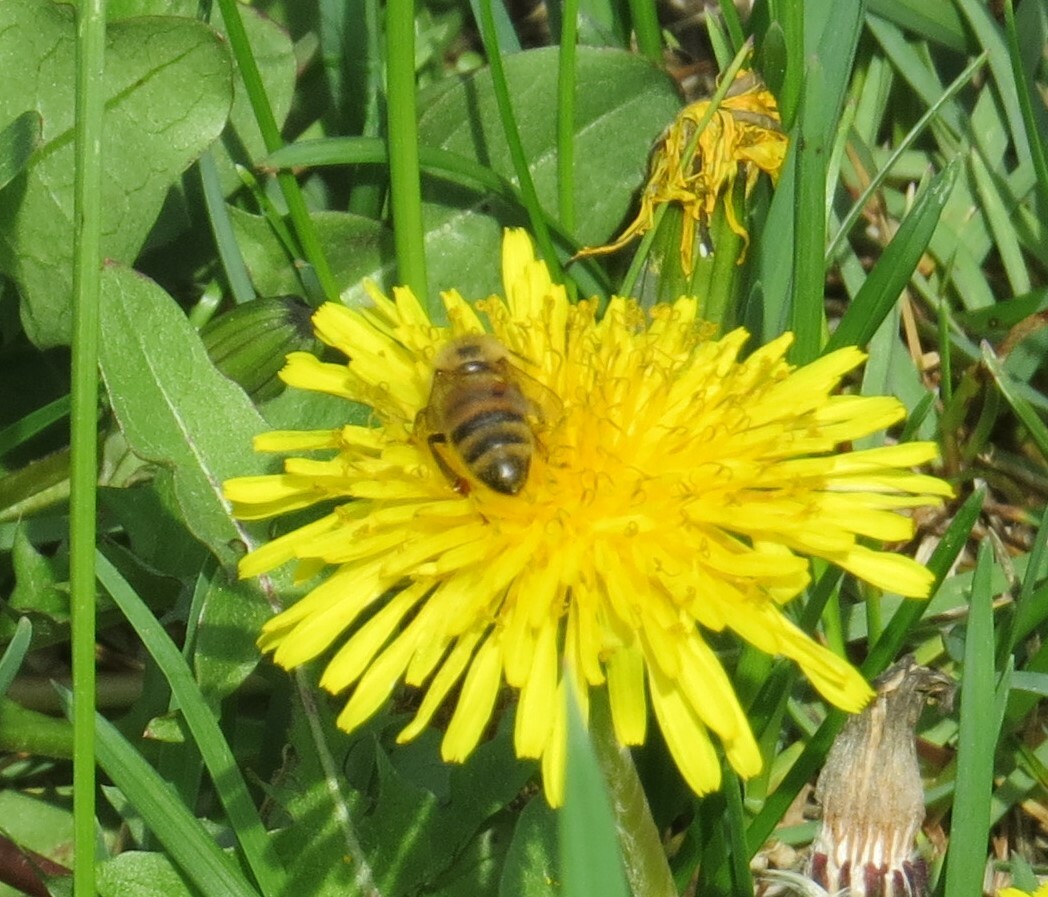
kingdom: Animalia
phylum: Arthropoda
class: Insecta
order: Hymenoptera
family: Apidae
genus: Apis
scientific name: Apis mellifera
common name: Honey bee
